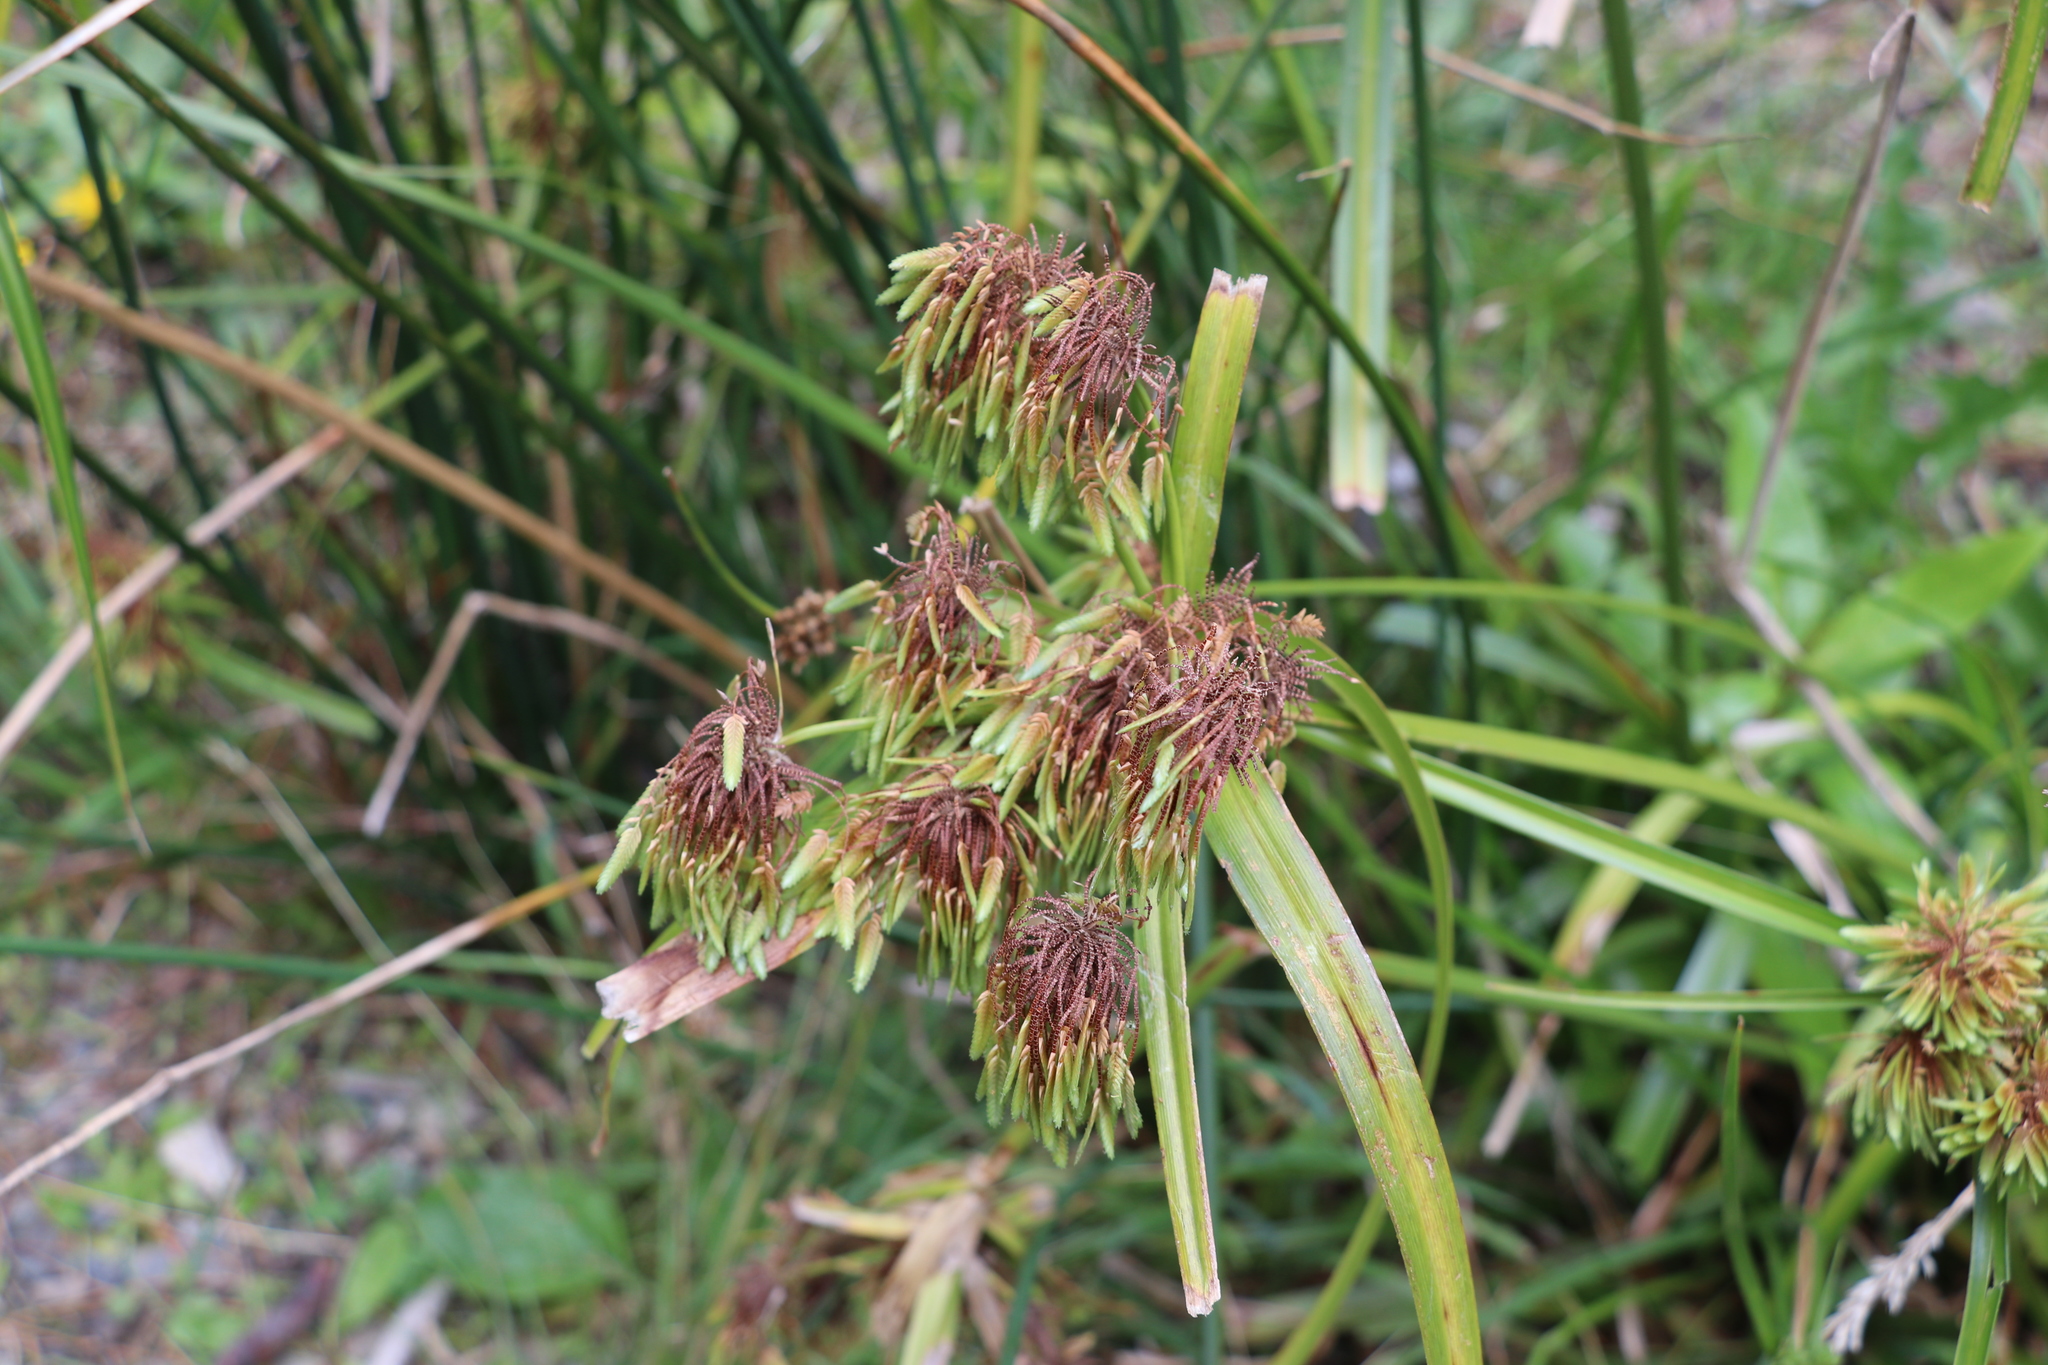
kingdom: Plantae
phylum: Tracheophyta
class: Liliopsida
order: Poales
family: Cyperaceae
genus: Cyperus
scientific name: Cyperus eragrostis
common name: Tall flatsedge
